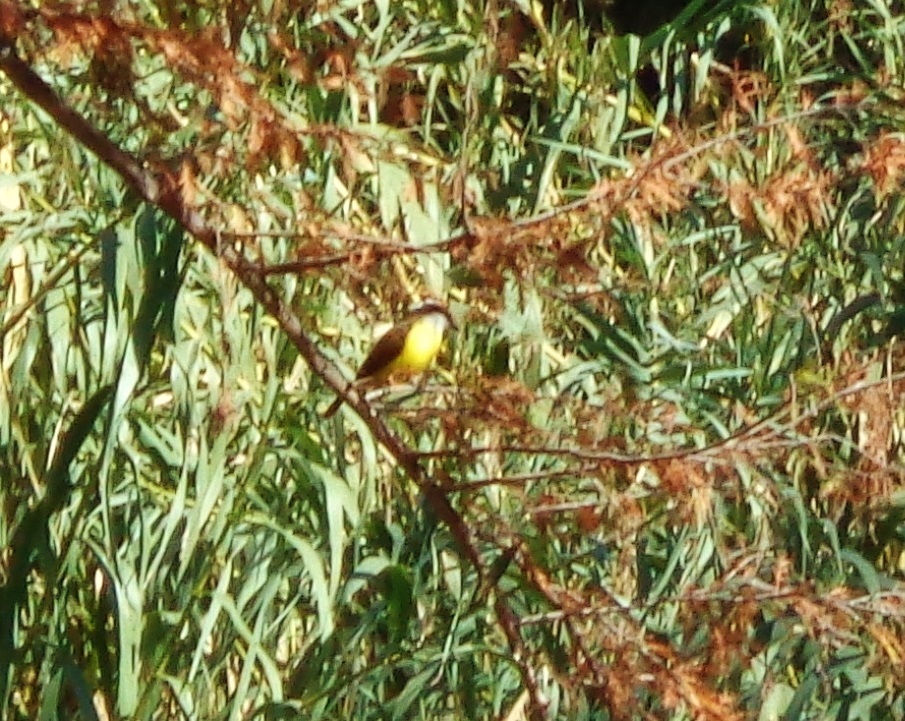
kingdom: Animalia
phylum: Chordata
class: Aves
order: Passeriformes
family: Tyrannidae
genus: Pitangus
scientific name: Pitangus sulphuratus
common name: Great kiskadee
